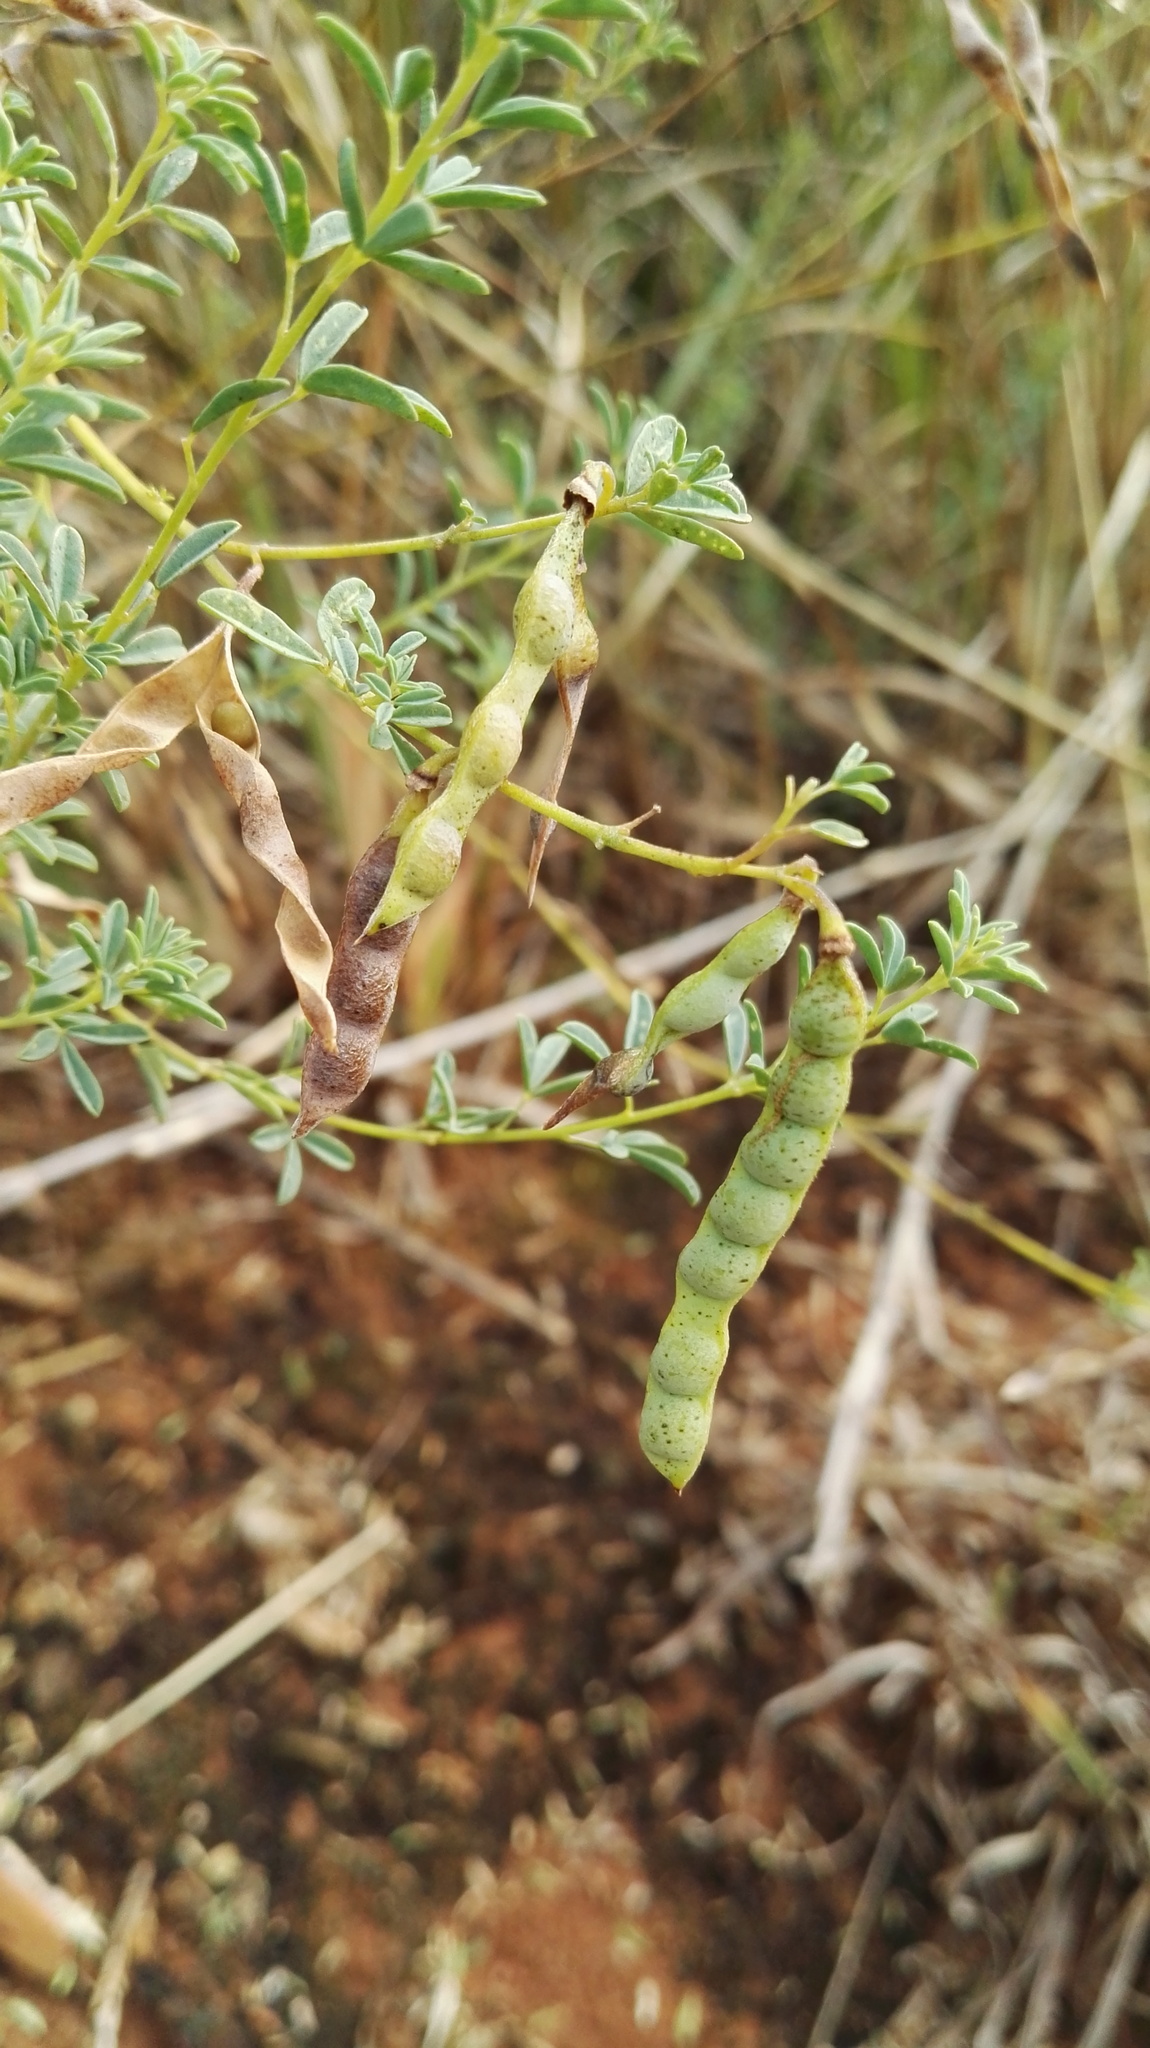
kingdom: Plantae
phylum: Tracheophyta
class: Magnoliopsida
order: Fabales
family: Fabaceae
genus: Dichilus
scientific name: Dichilus lebeckioides
